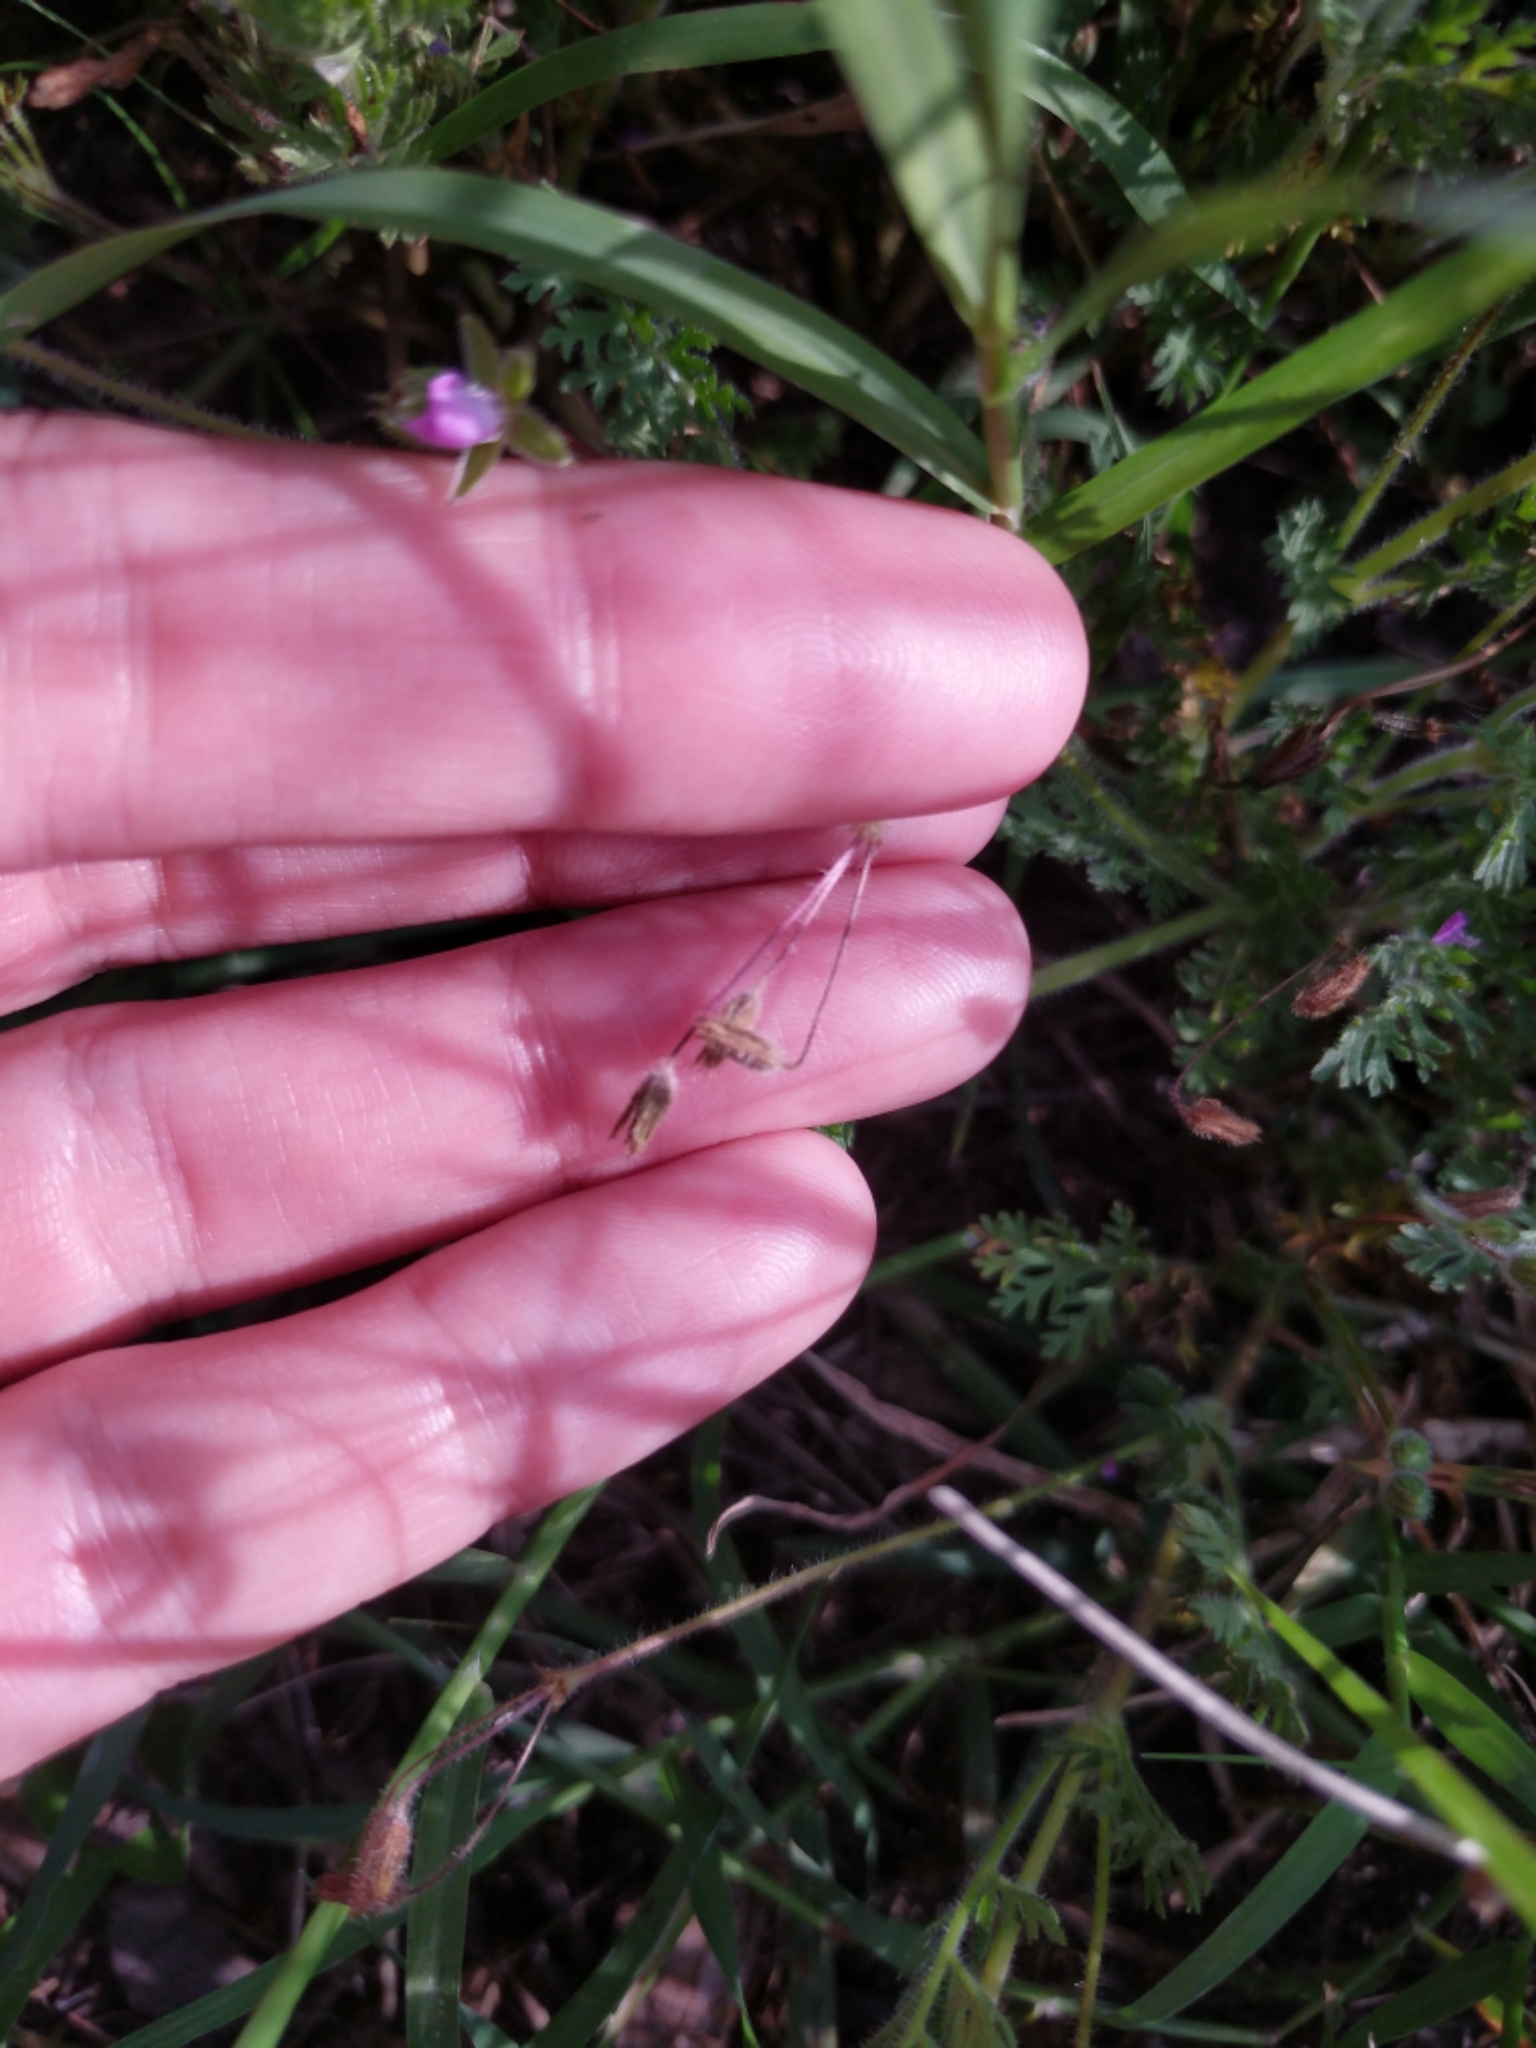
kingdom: Plantae
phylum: Tracheophyta
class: Magnoliopsida
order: Geraniales
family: Geraniaceae
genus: Erodium
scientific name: Erodium cicutarium
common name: Common stork's-bill
